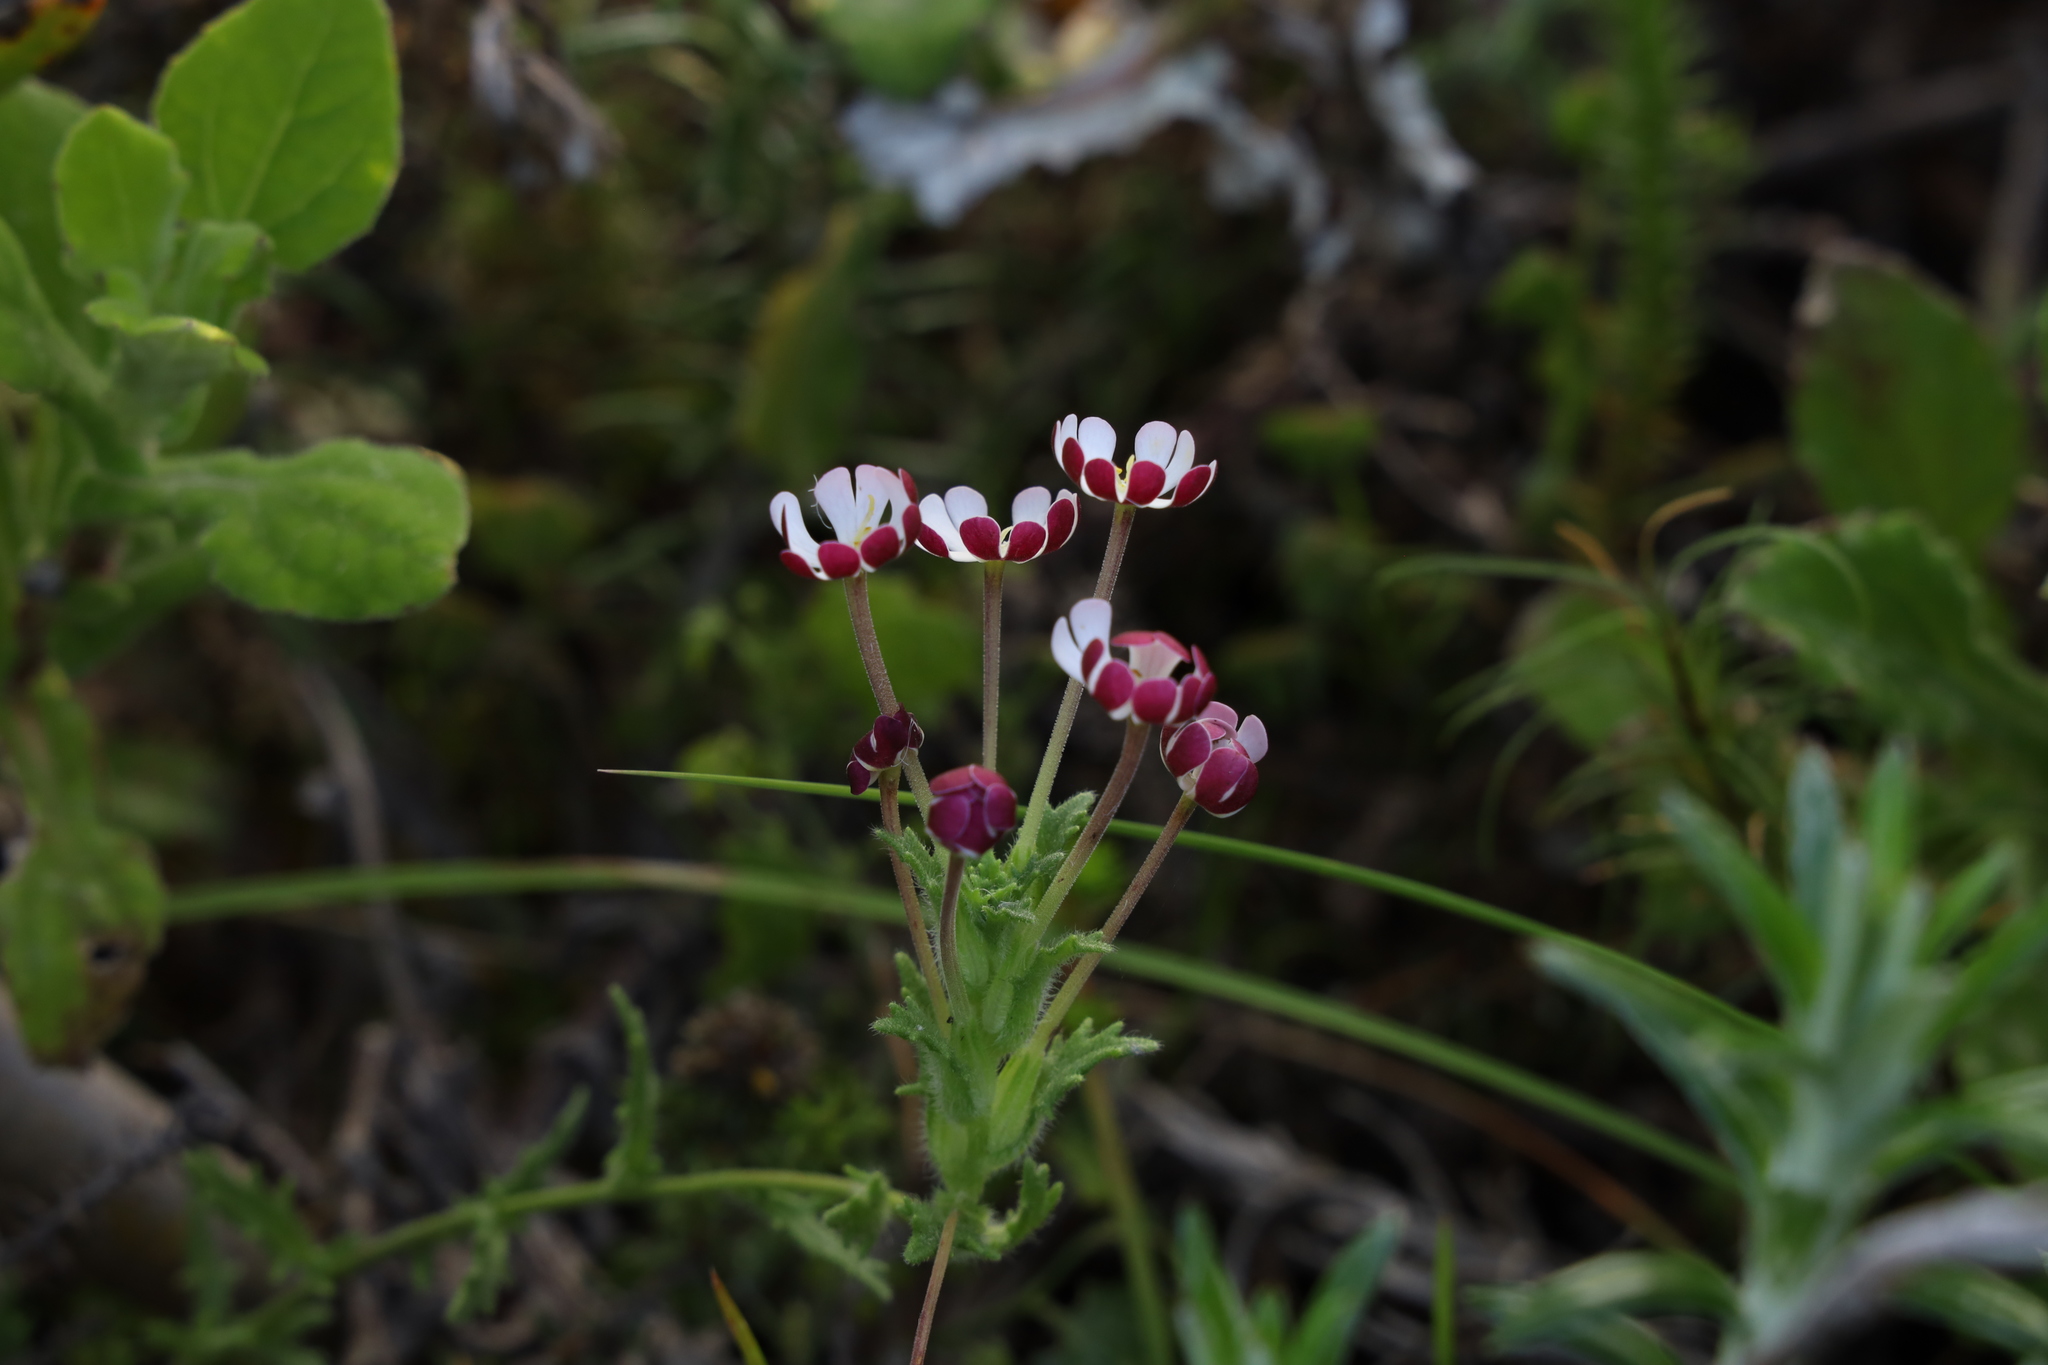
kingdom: Plantae
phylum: Tracheophyta
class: Magnoliopsida
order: Lamiales
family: Scrophulariaceae
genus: Zaluzianskya
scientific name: Zaluzianskya capensis
